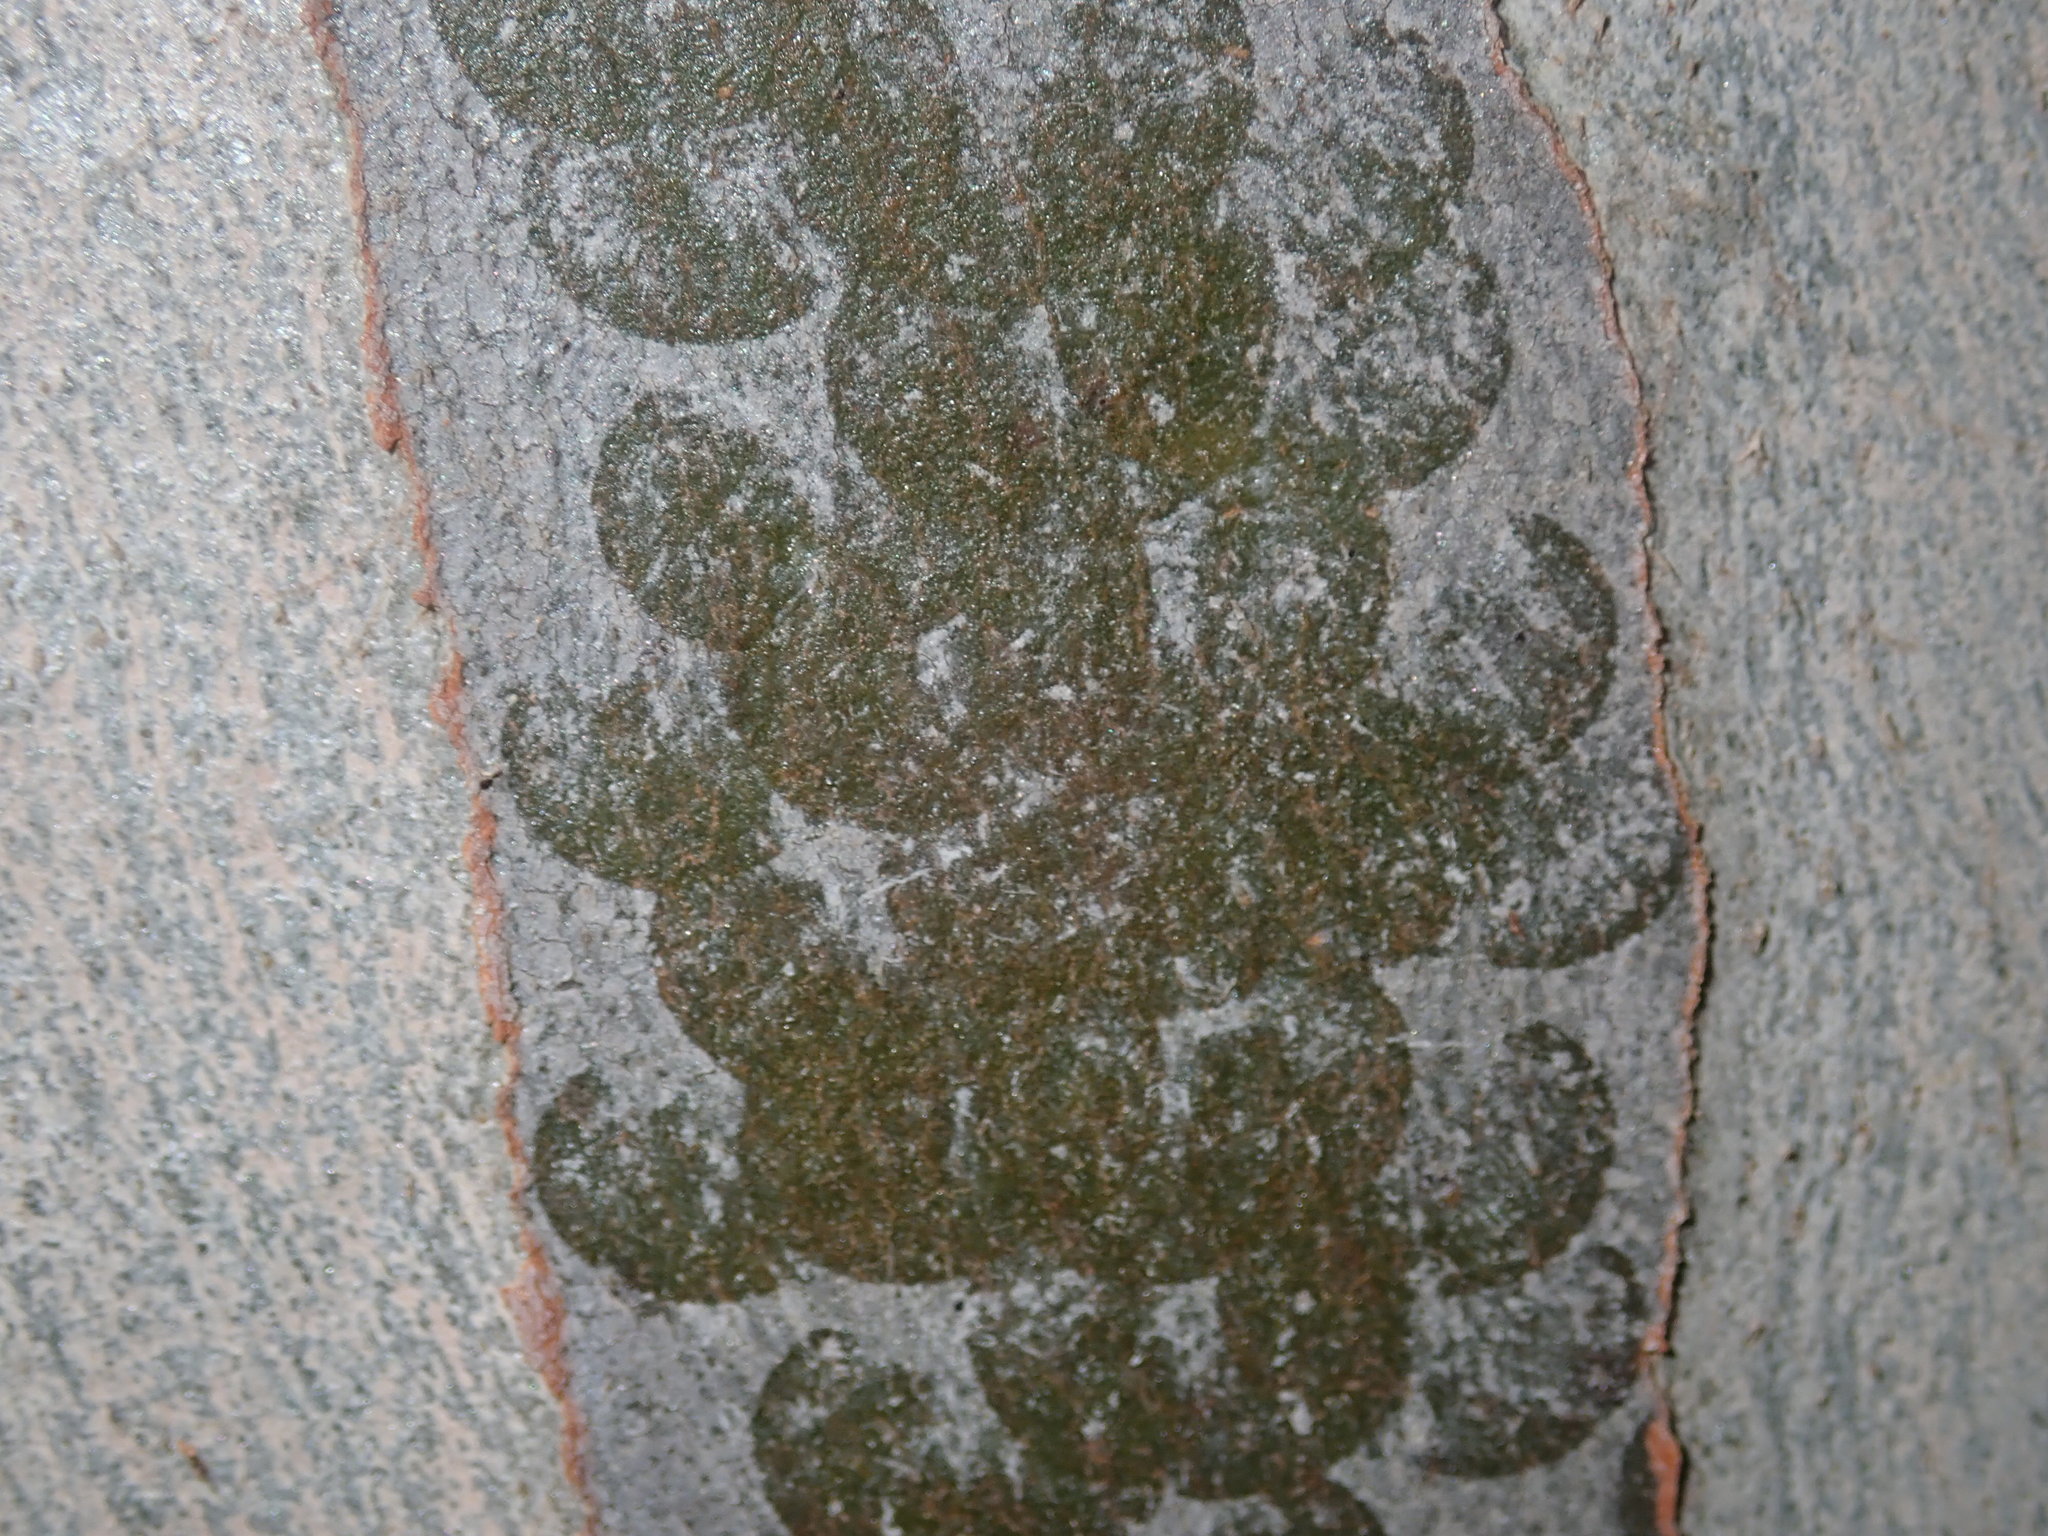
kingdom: Animalia
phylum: Mollusca
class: Gastropoda
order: Stylommatophora
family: Athoracophoridae
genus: Triboniophorus
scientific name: Triboniophorus graeffei
